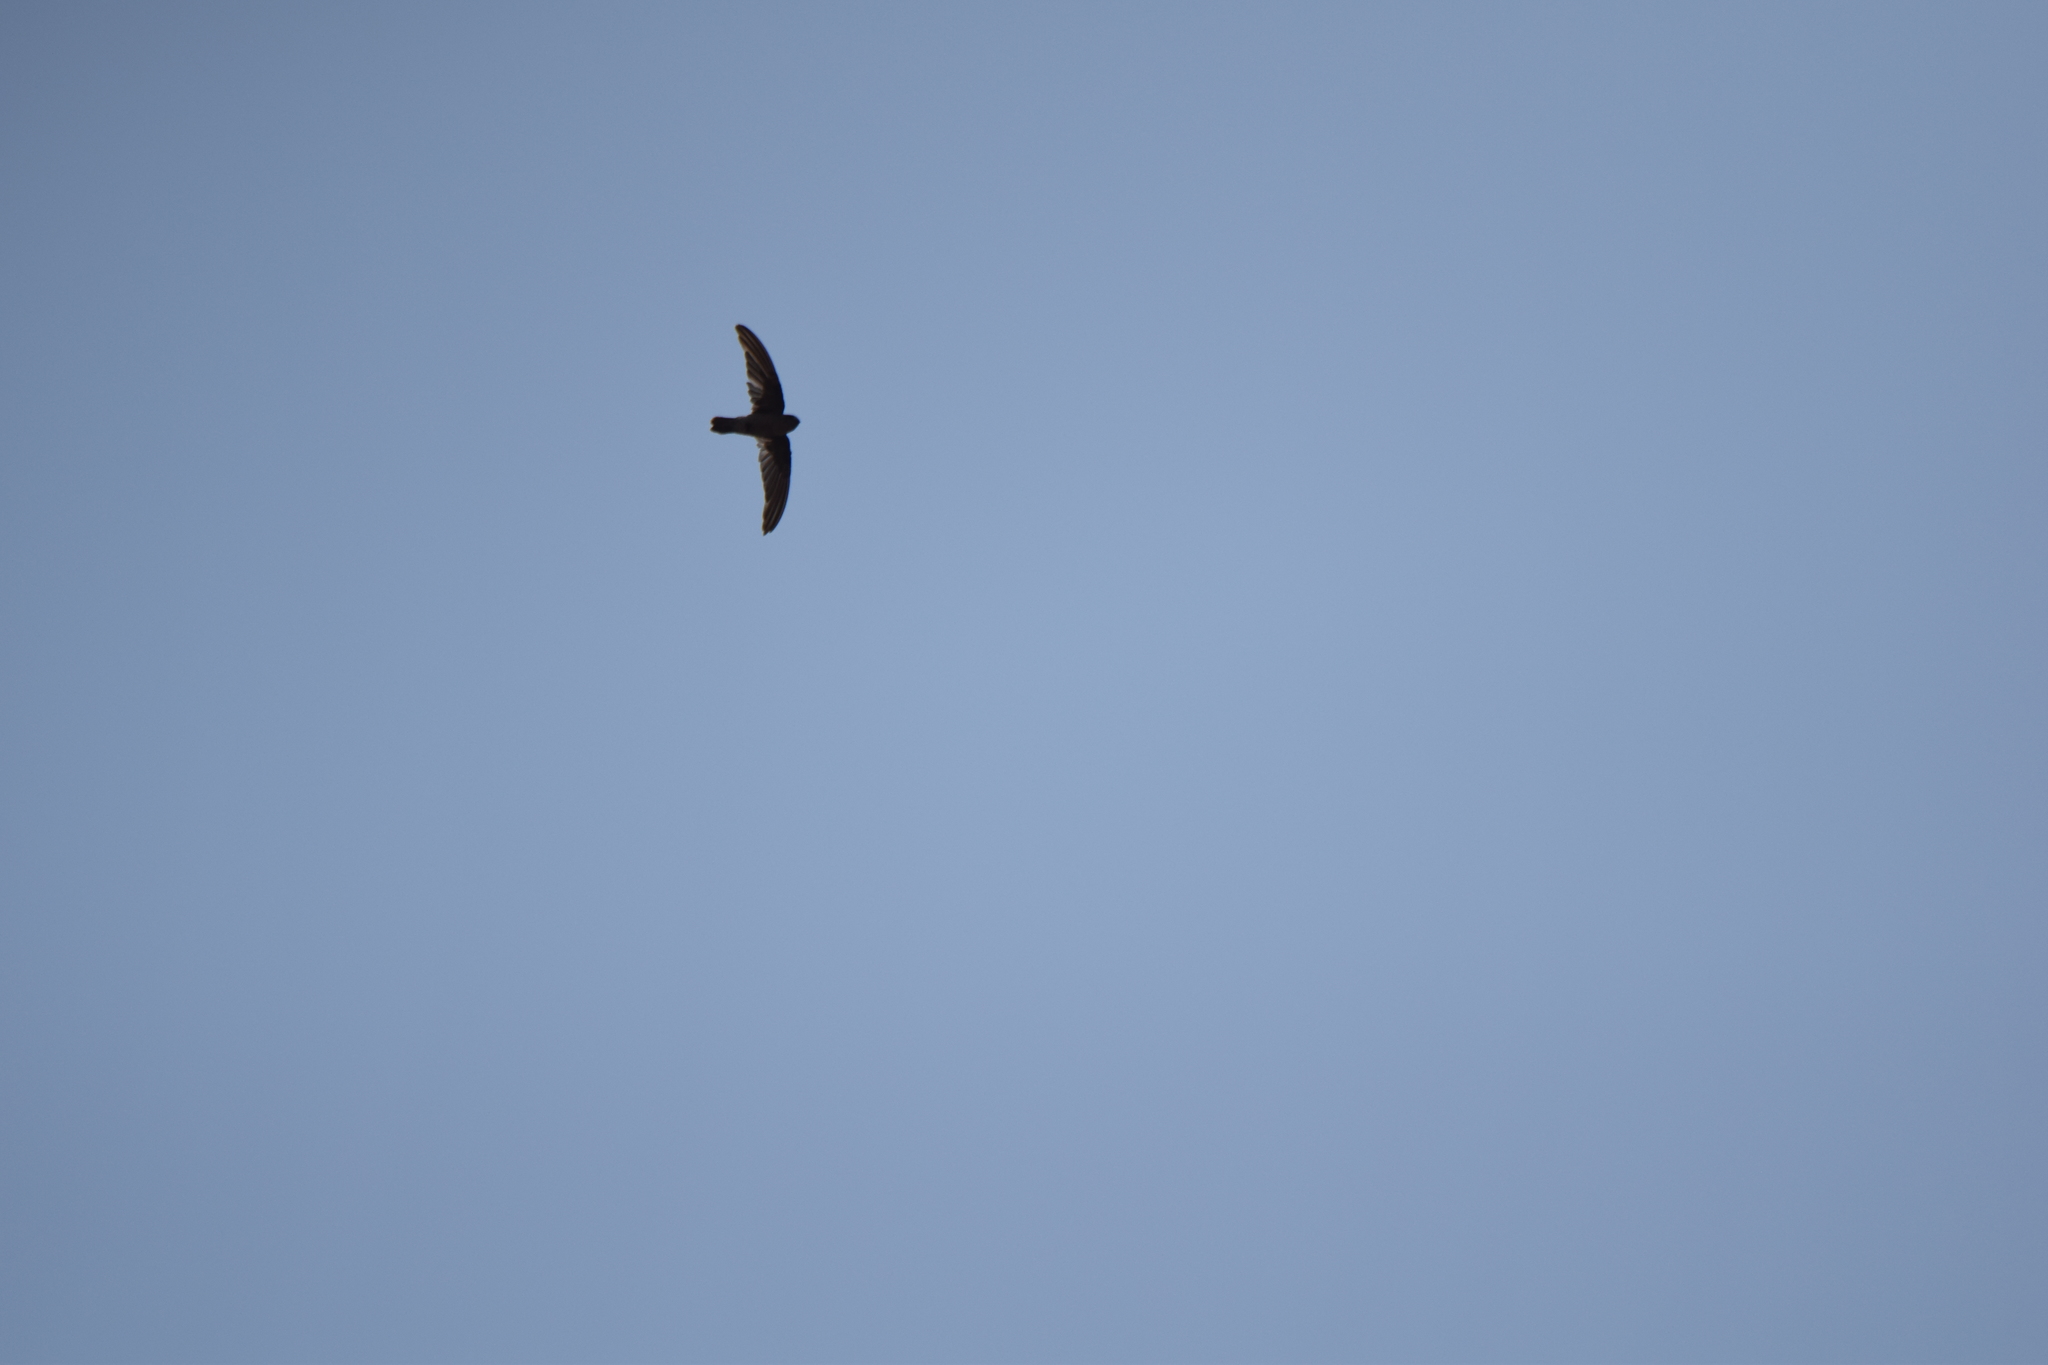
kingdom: Animalia
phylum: Chordata
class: Aves
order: Apodiformes
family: Apodidae
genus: Aerodramus
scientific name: Aerodramus germani
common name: Germain's swiftlet
